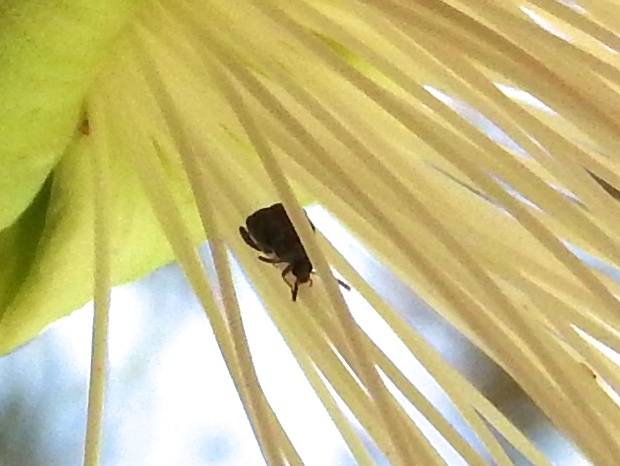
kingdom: Animalia
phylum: Arthropoda
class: Insecta
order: Coleoptera
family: Bruchidae
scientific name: Bruchidae
